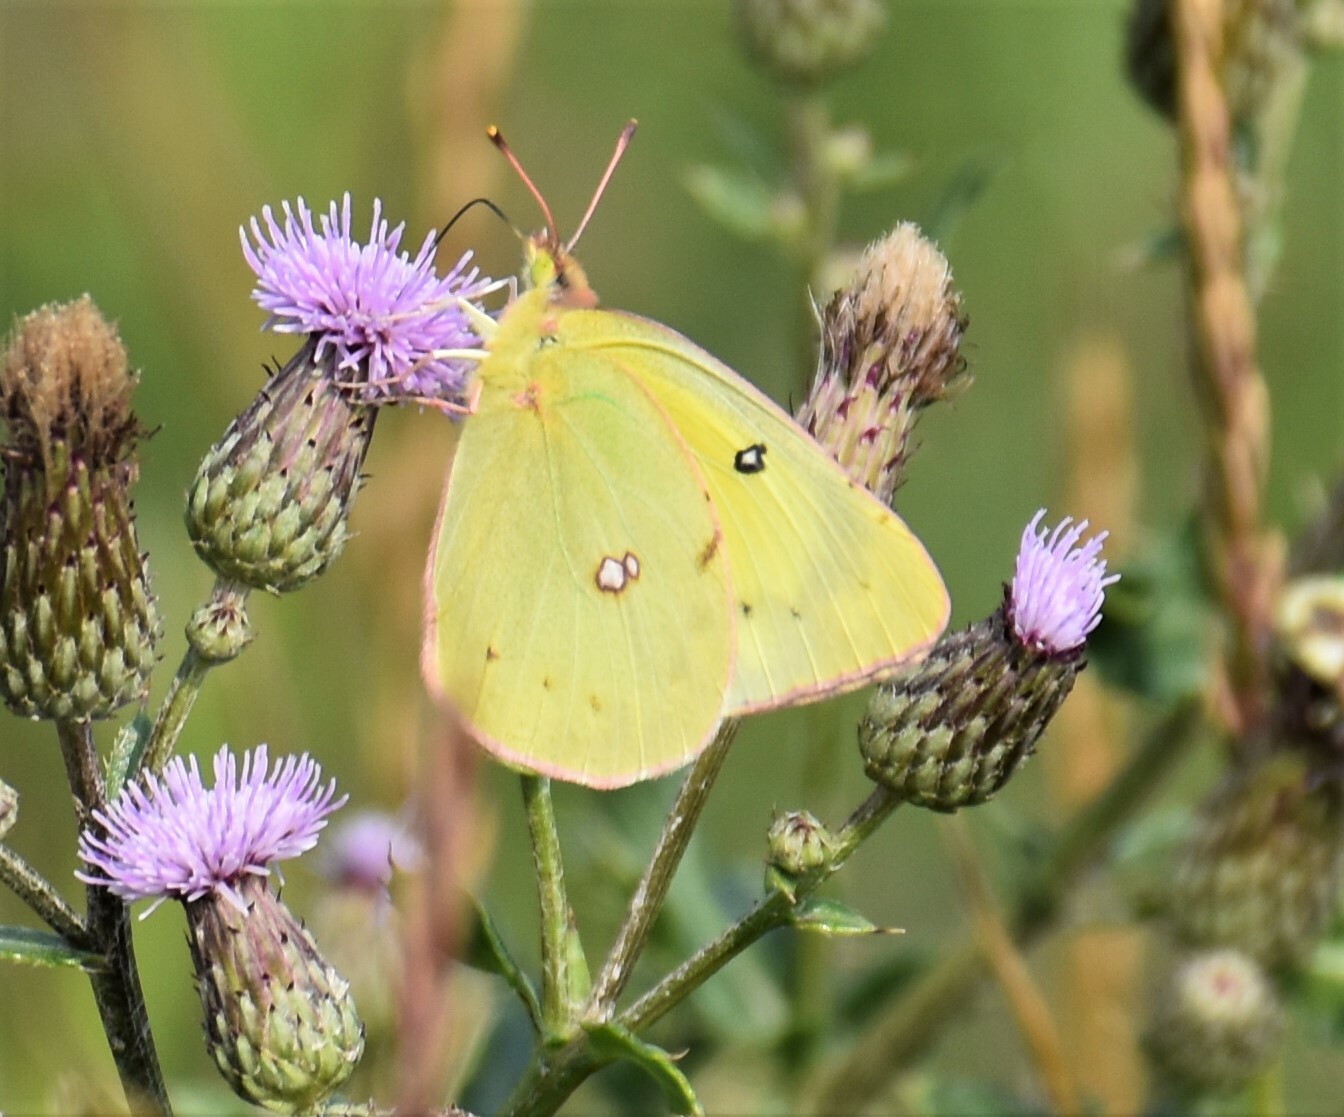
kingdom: Animalia
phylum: Arthropoda
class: Insecta
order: Lepidoptera
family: Pieridae
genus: Colias
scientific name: Colias philodice
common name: Clouded sulphur
